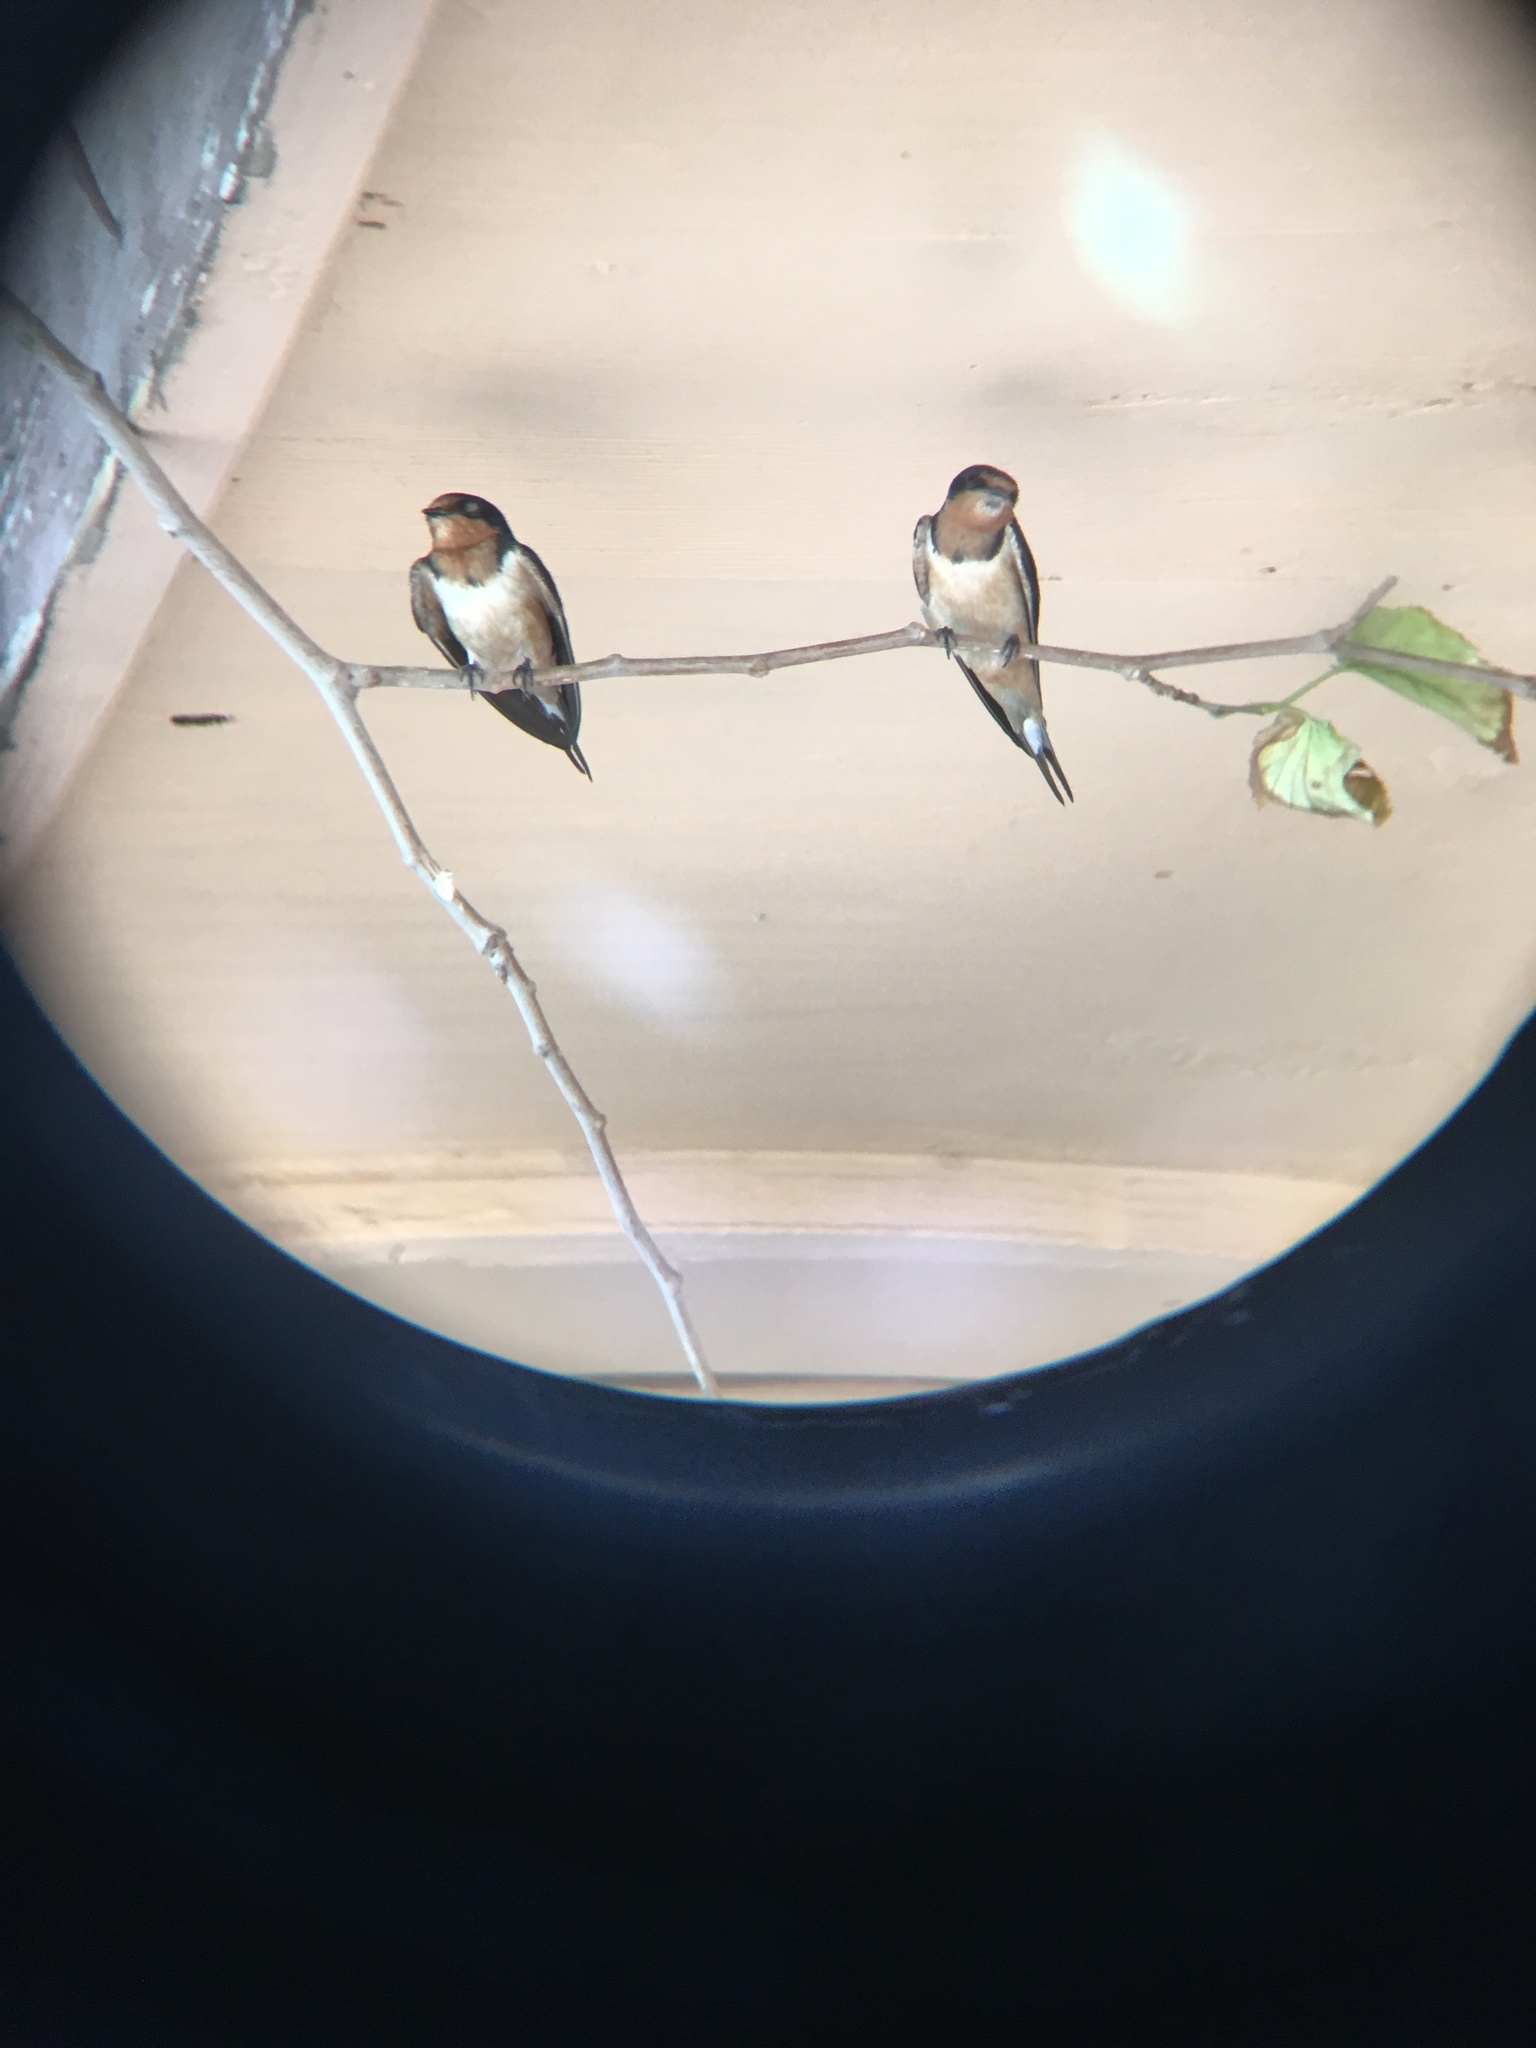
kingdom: Animalia
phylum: Chordata
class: Aves
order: Passeriformes
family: Hirundinidae
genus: Hirundo
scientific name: Hirundo rustica
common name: Barn swallow
